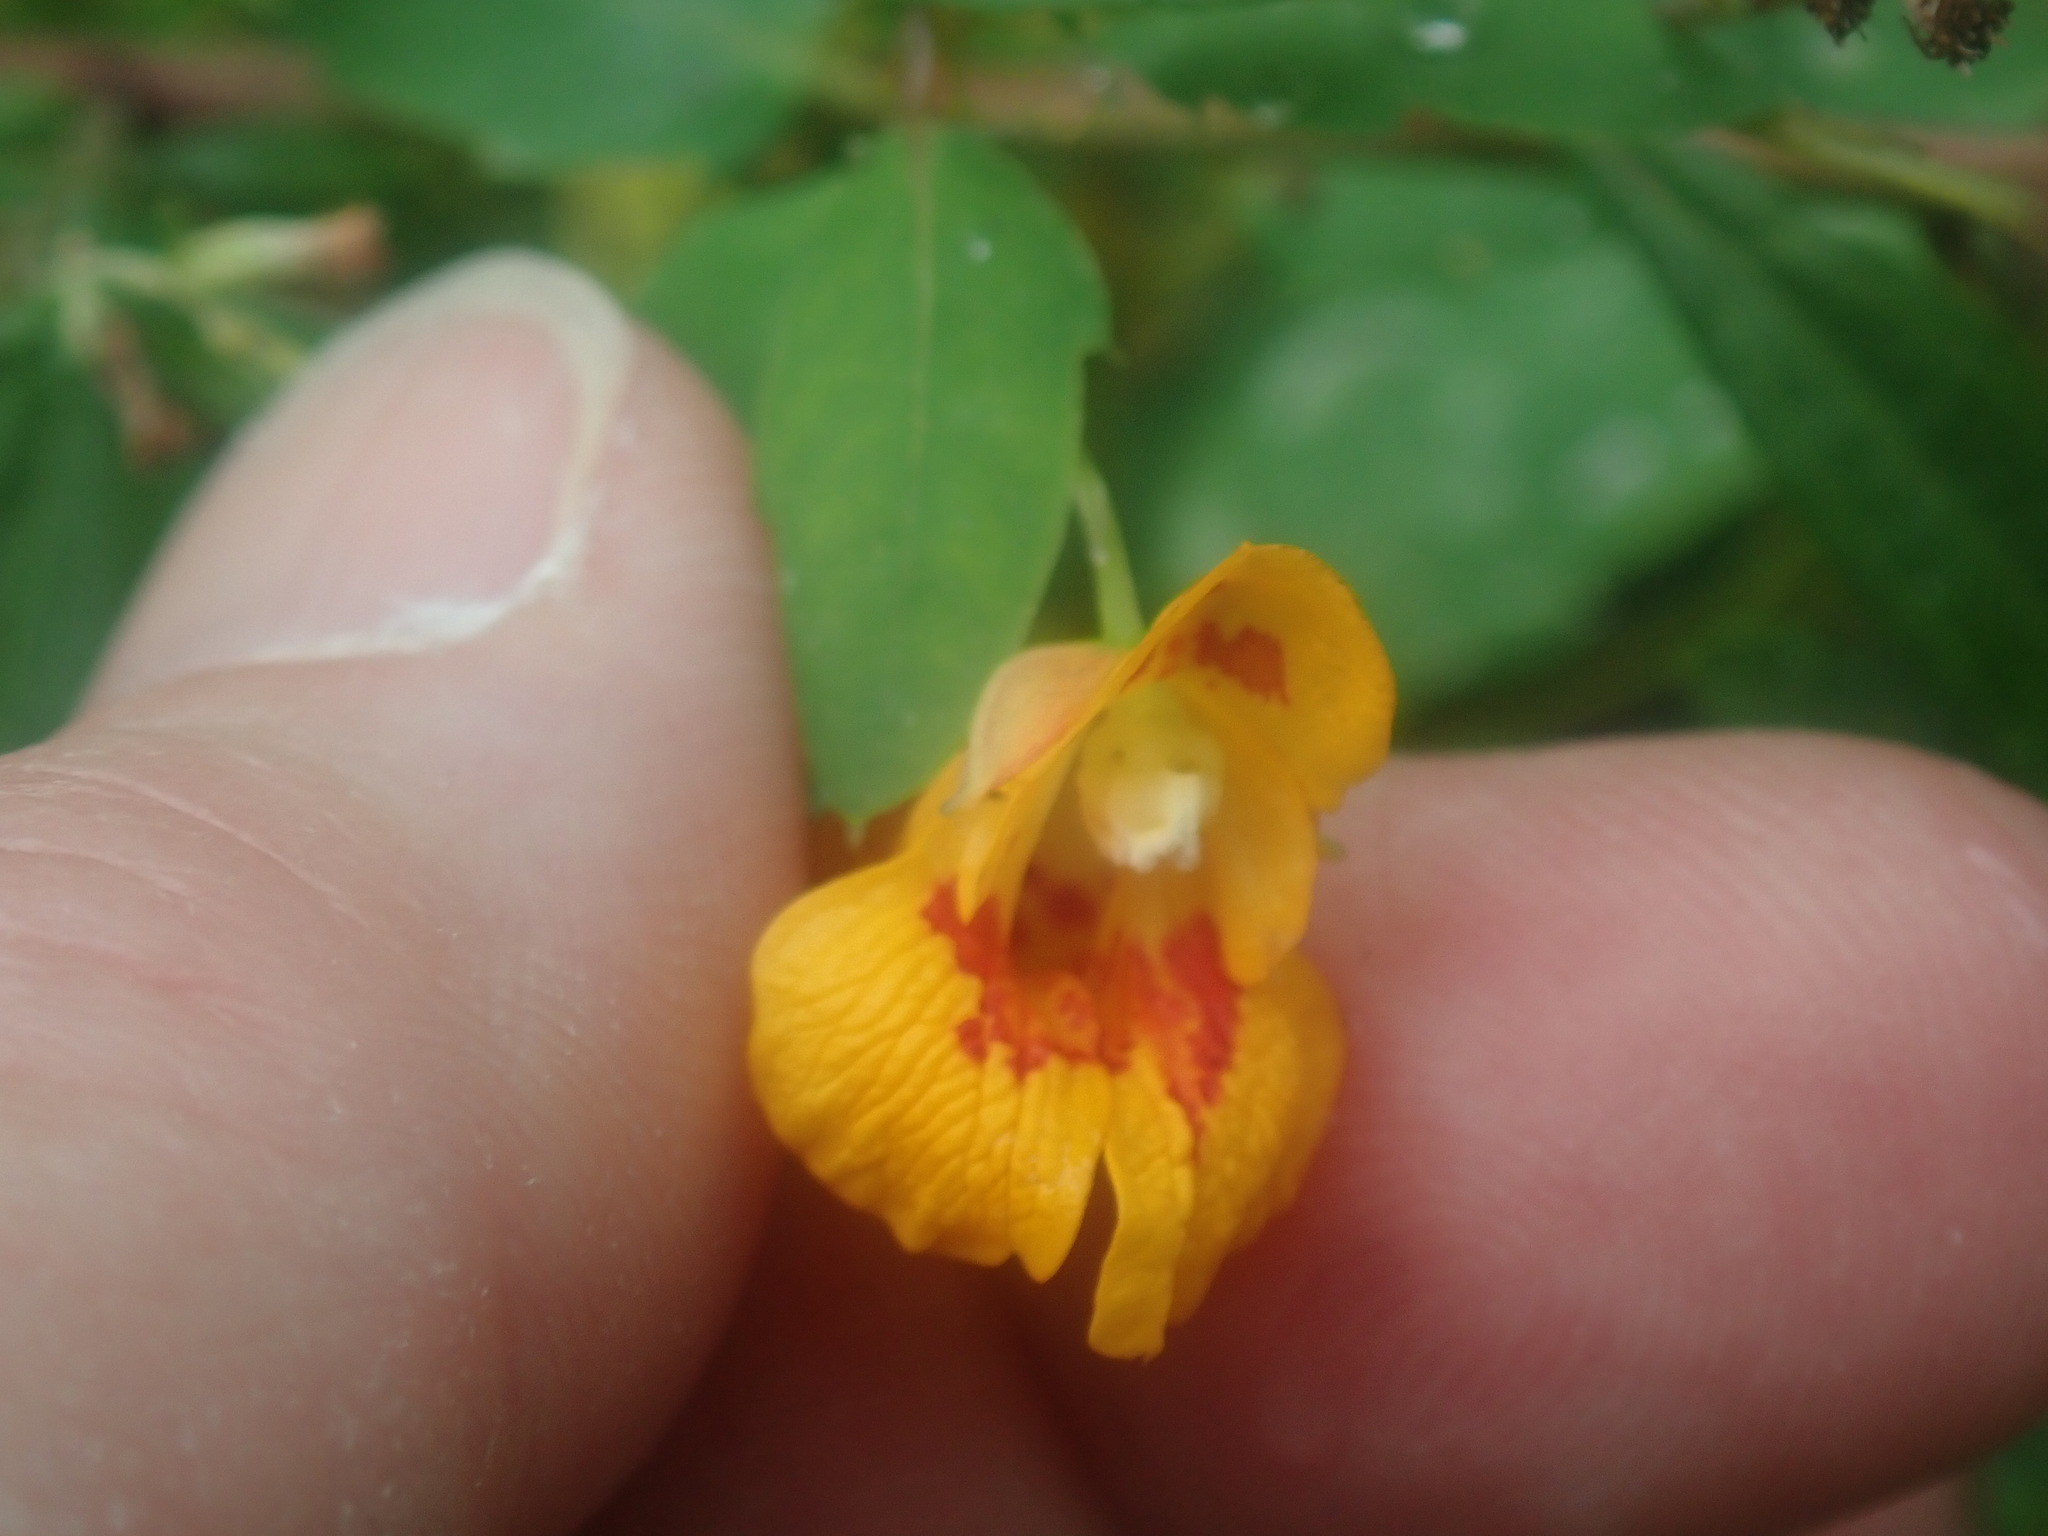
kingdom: Plantae
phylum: Tracheophyta
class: Magnoliopsida
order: Ericales
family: Balsaminaceae
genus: Impatiens
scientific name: Impatiens capensis
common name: Orange balsam
